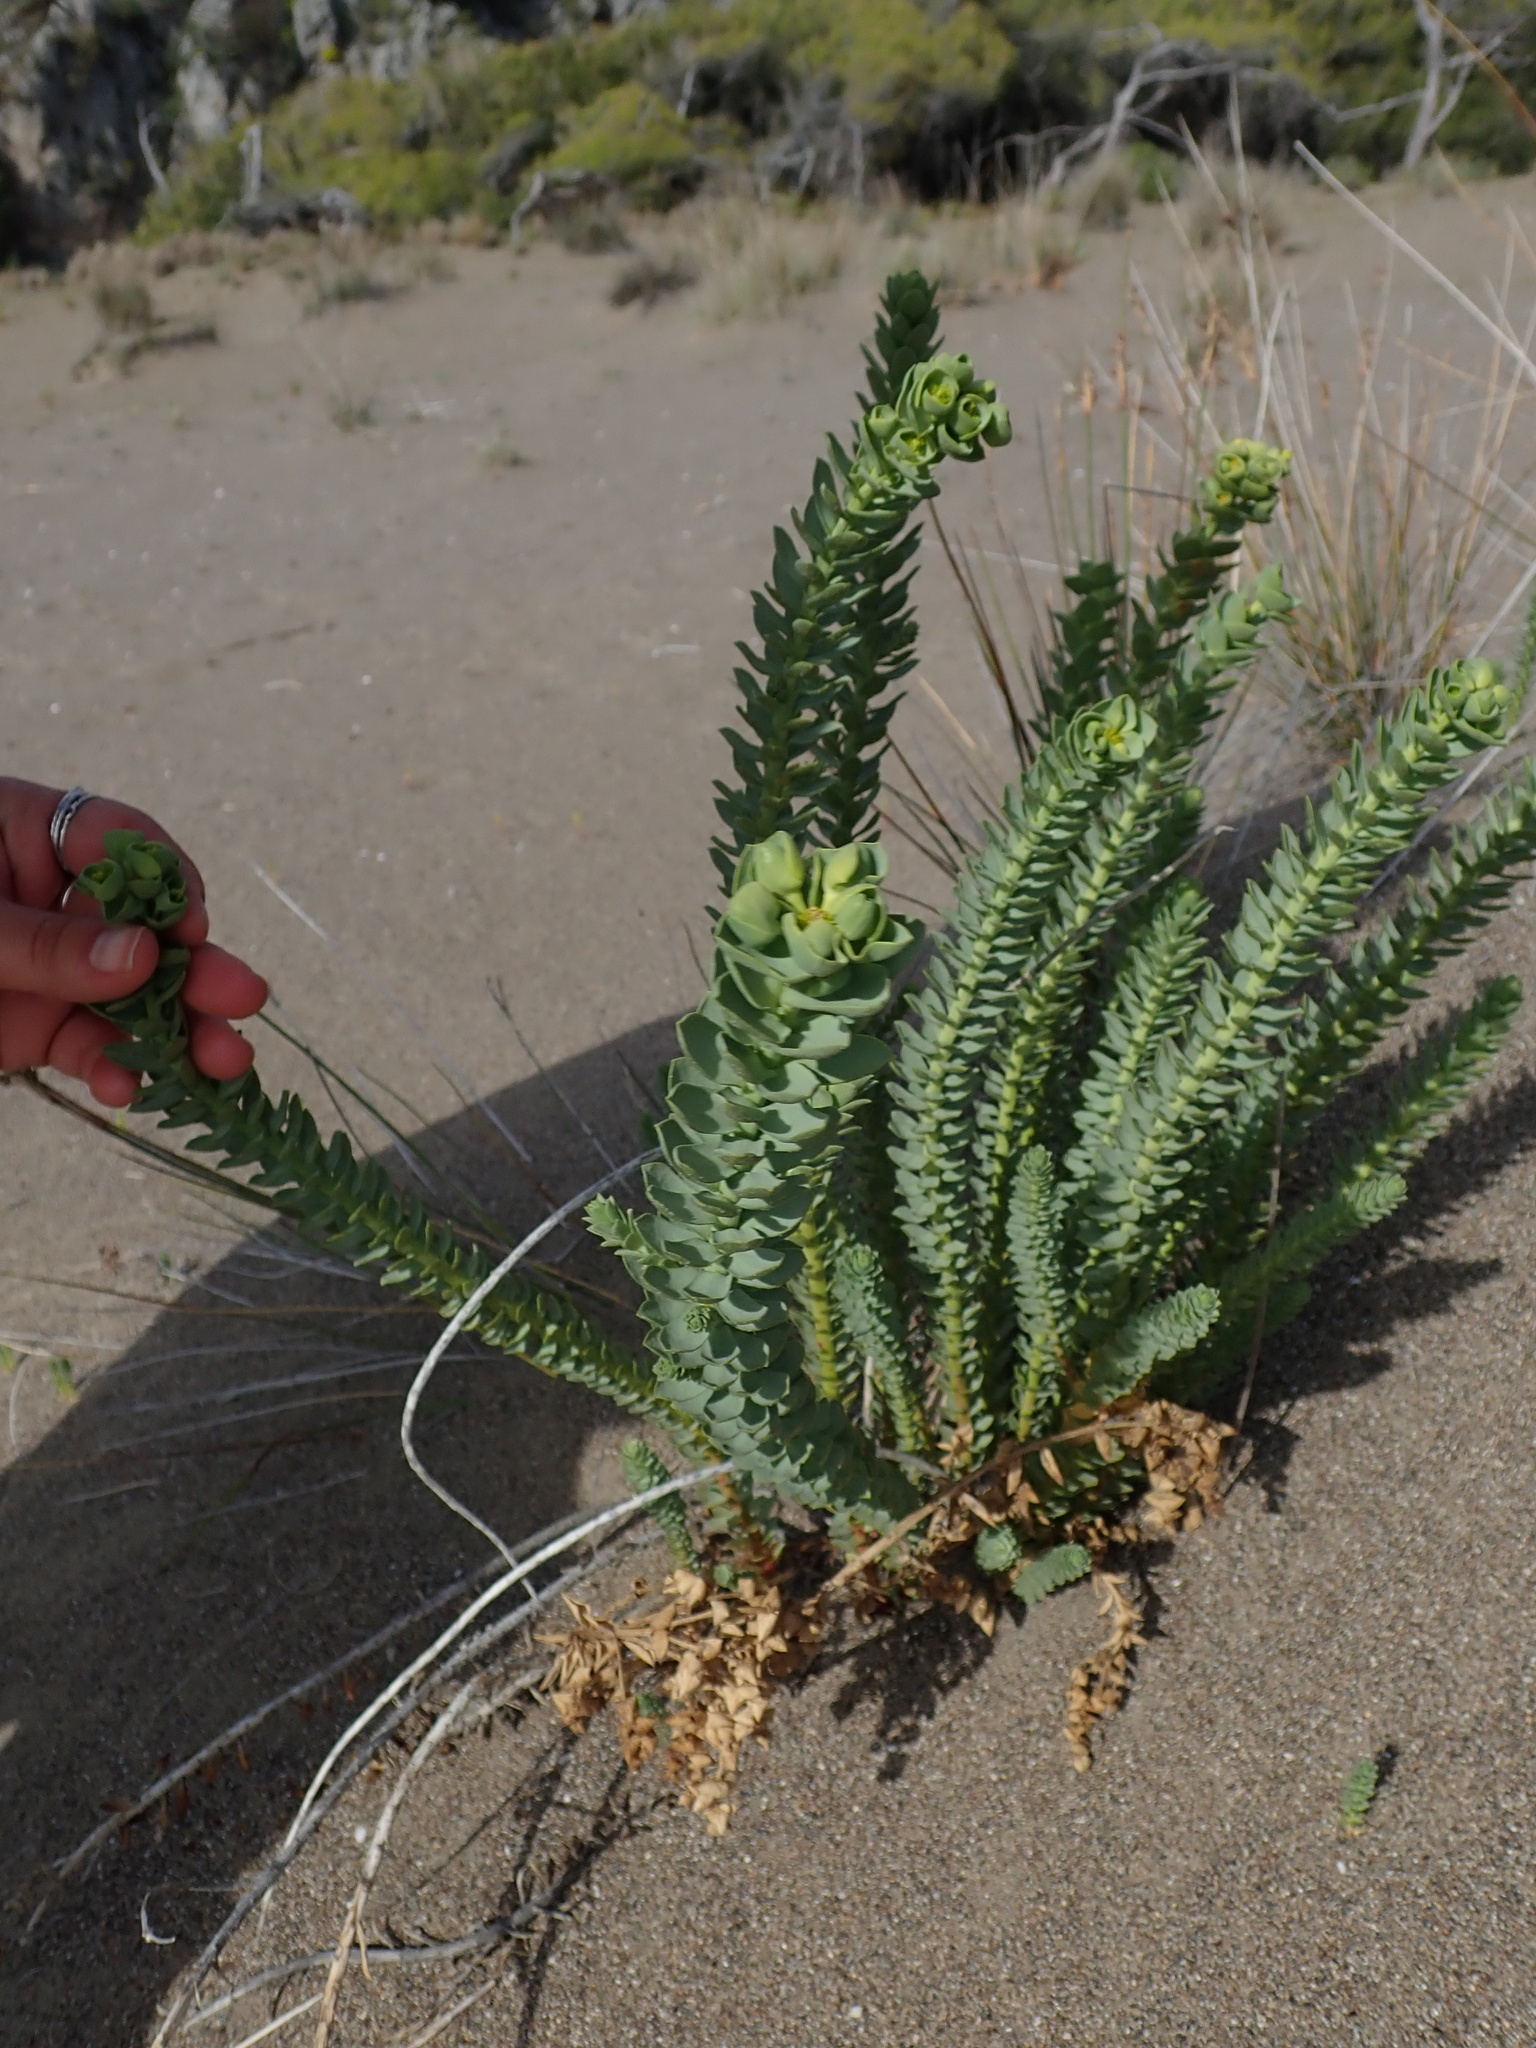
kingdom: Plantae
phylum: Tracheophyta
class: Magnoliopsida
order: Malpighiales
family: Euphorbiaceae
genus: Euphorbia
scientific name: Euphorbia paralias
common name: Sea spurge
